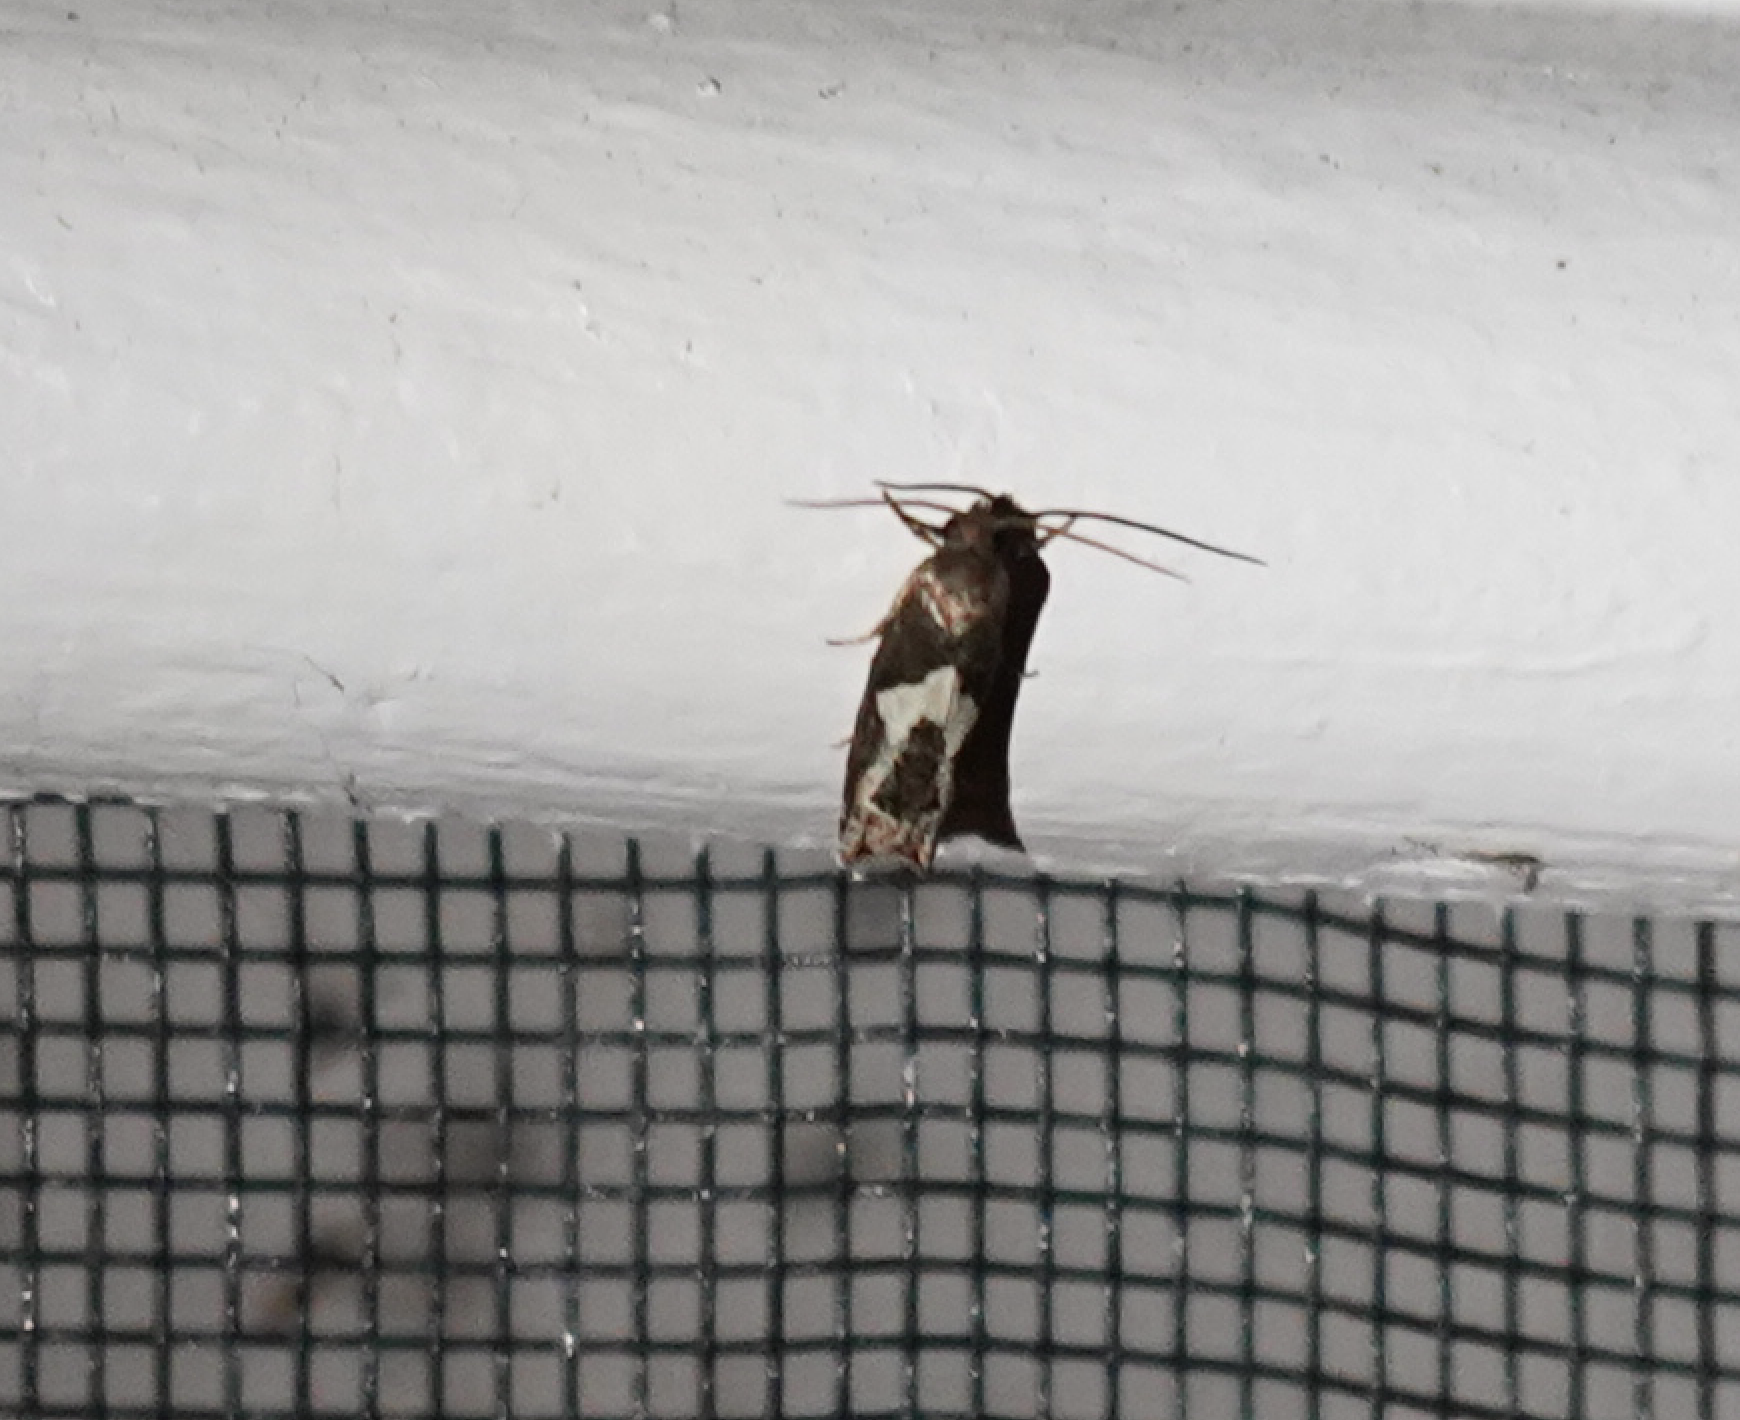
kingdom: Animalia
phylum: Arthropoda
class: Insecta
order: Lepidoptera
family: Tortricidae
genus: Epiblema
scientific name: Epiblema otiosana
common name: Bidens borer moth
